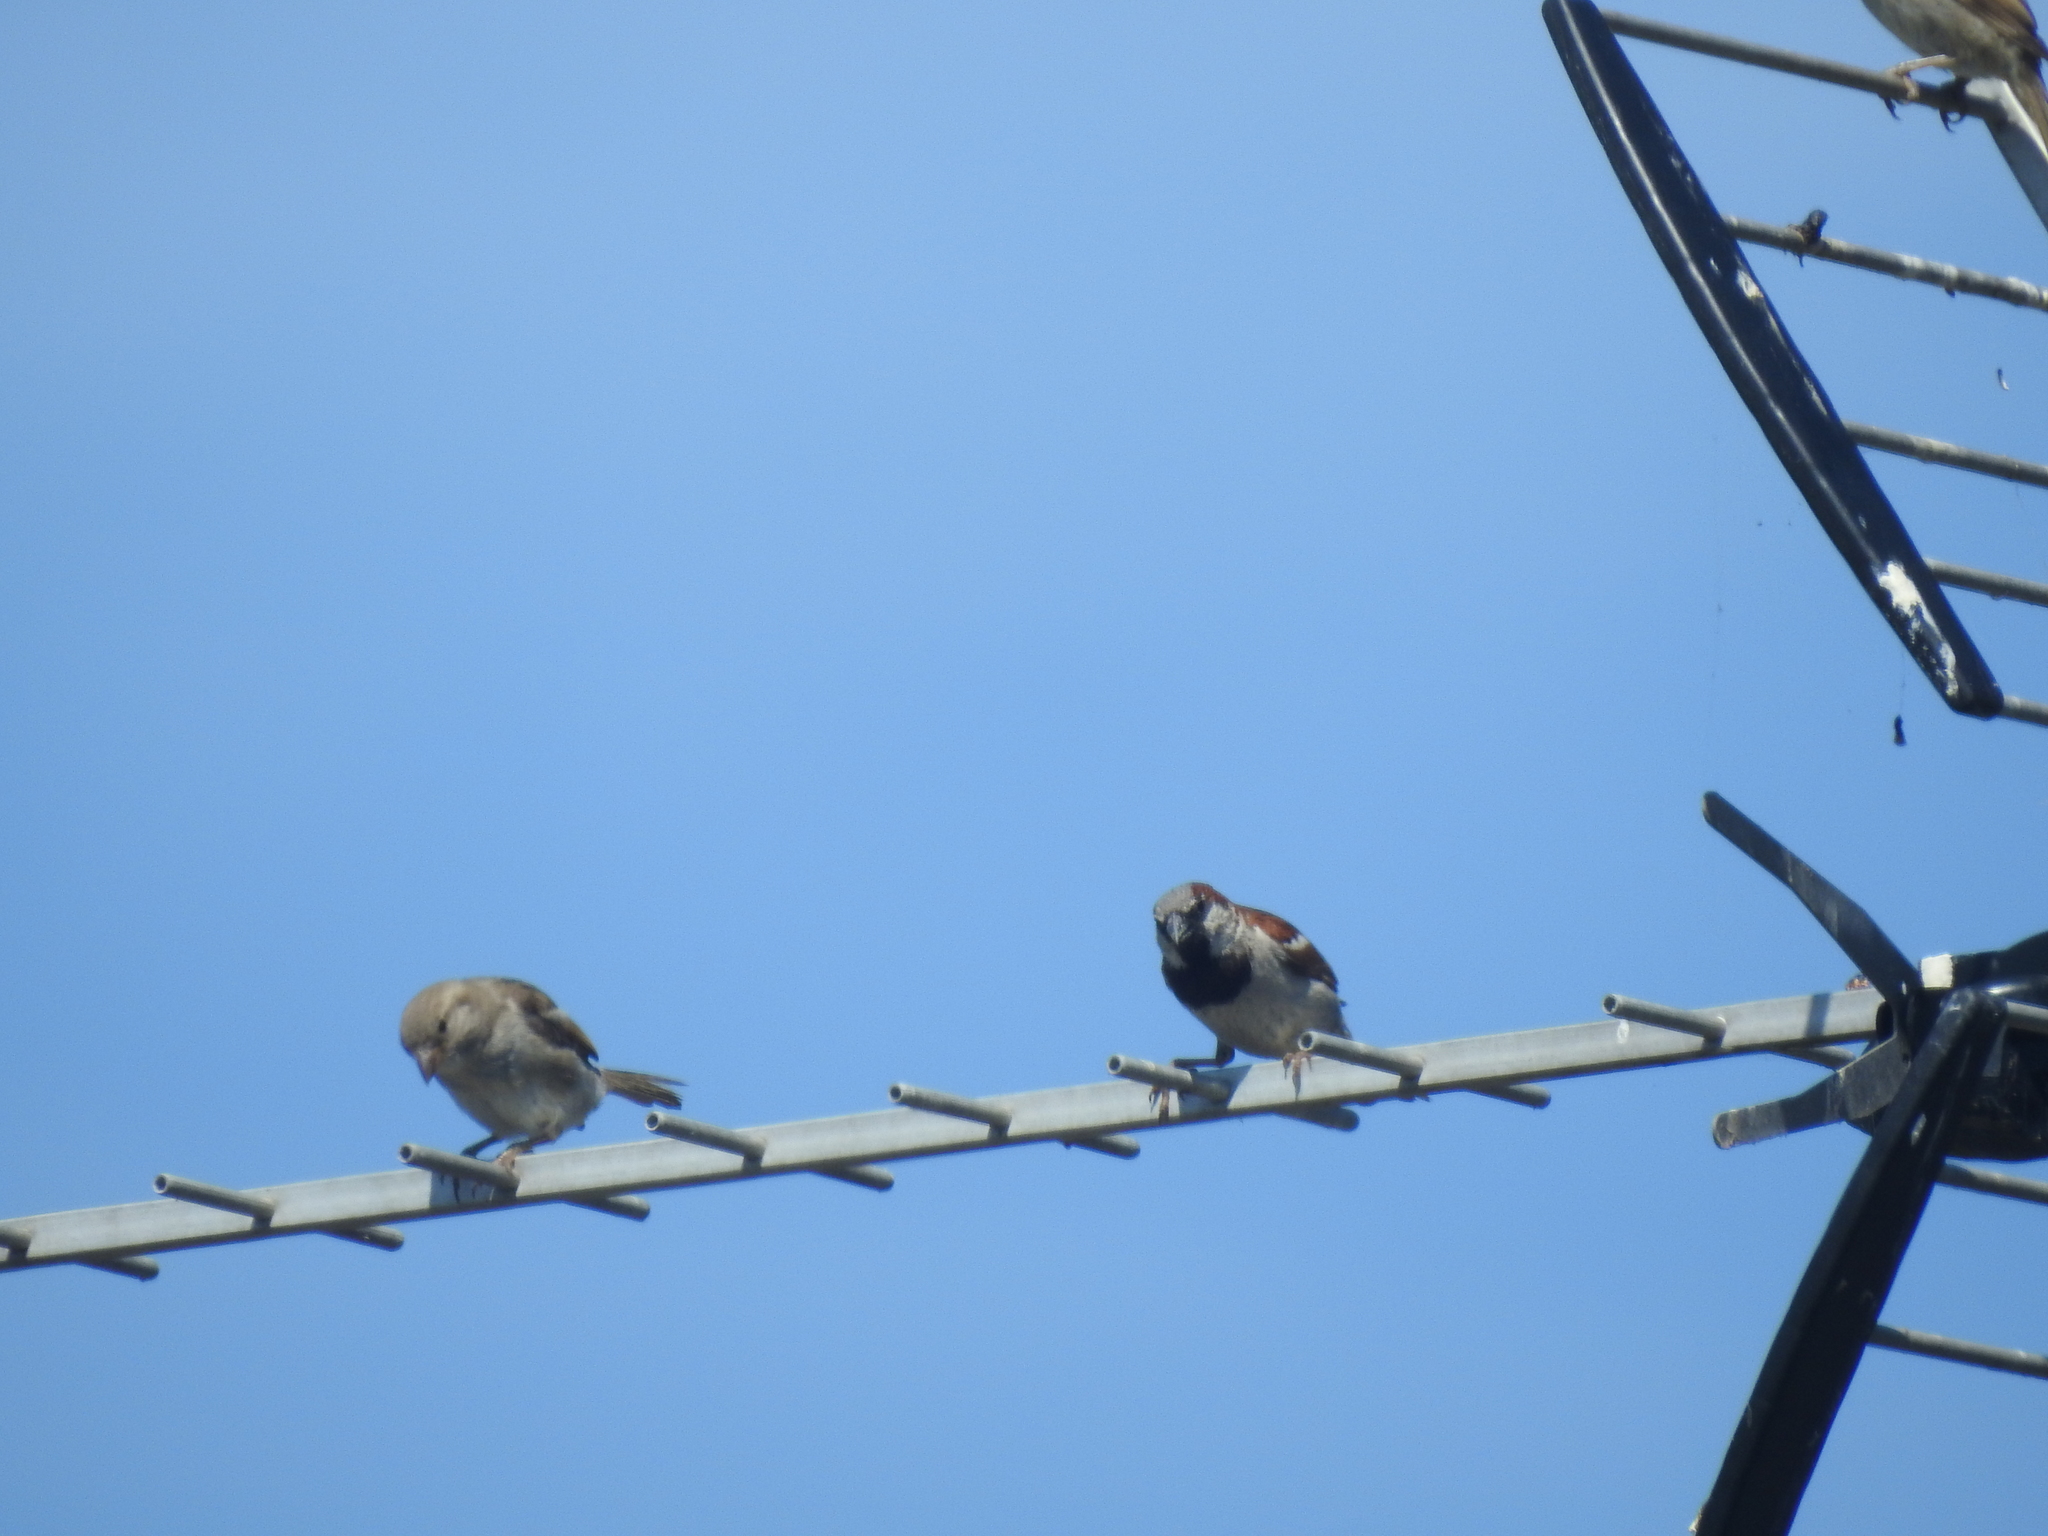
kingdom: Animalia
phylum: Chordata
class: Aves
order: Passeriformes
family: Passeridae
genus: Passer
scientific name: Passer domesticus
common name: House sparrow
